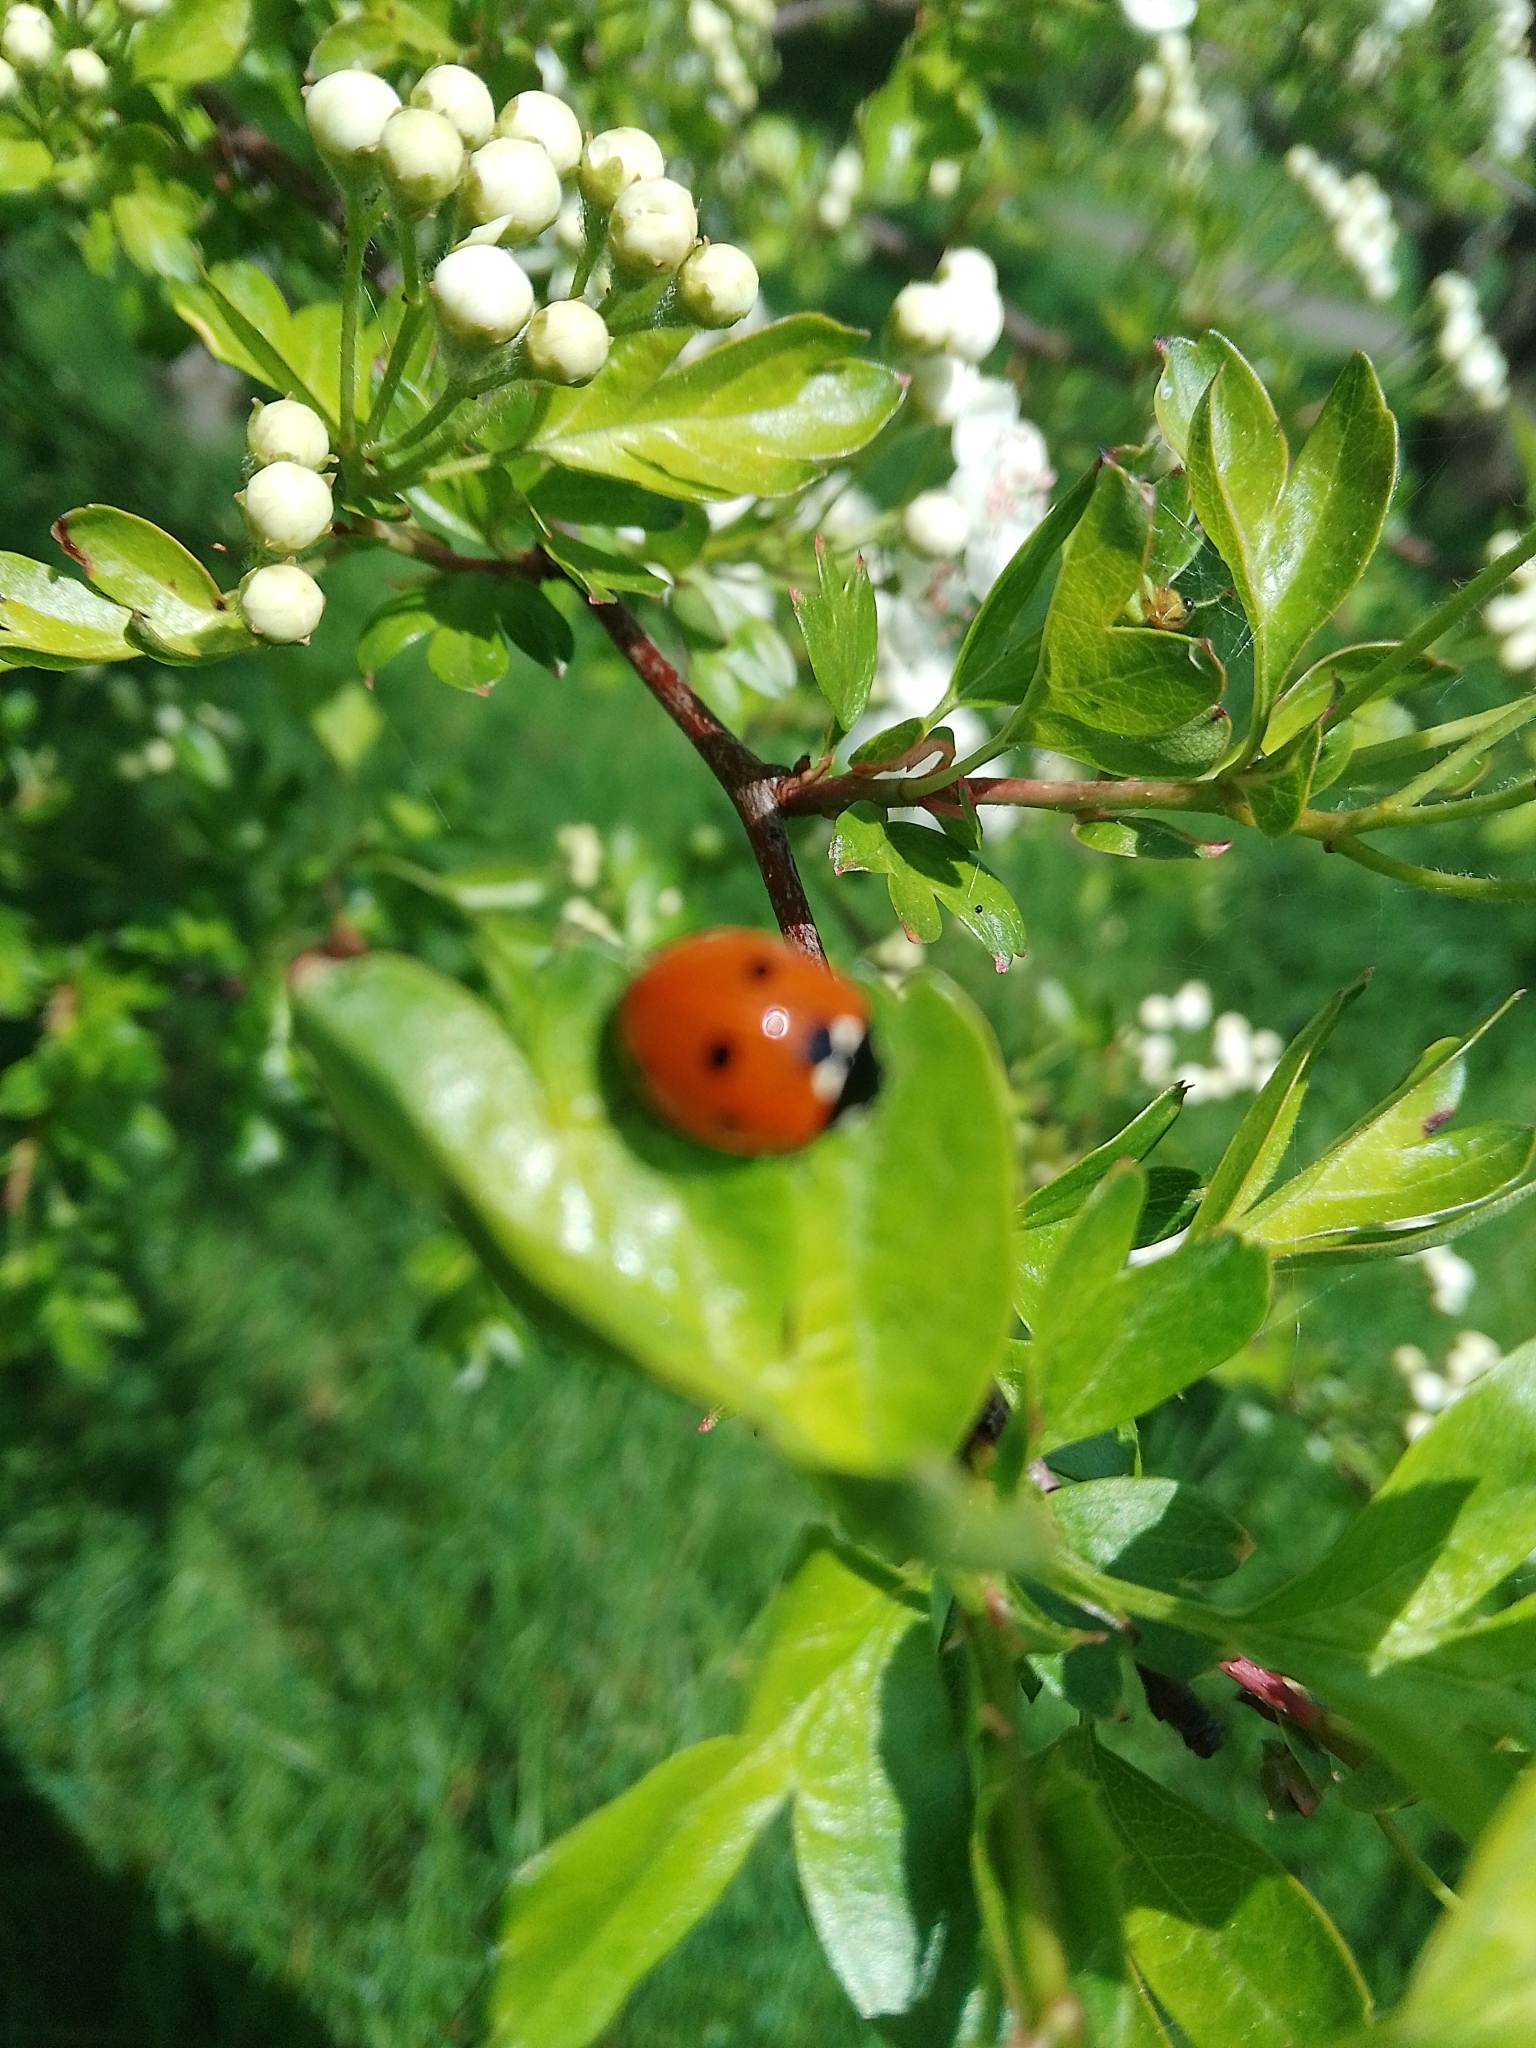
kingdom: Animalia
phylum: Arthropoda
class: Insecta
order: Coleoptera
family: Coccinellidae
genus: Coccinella
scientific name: Coccinella septempunctata
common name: Sevenspotted lady beetle
